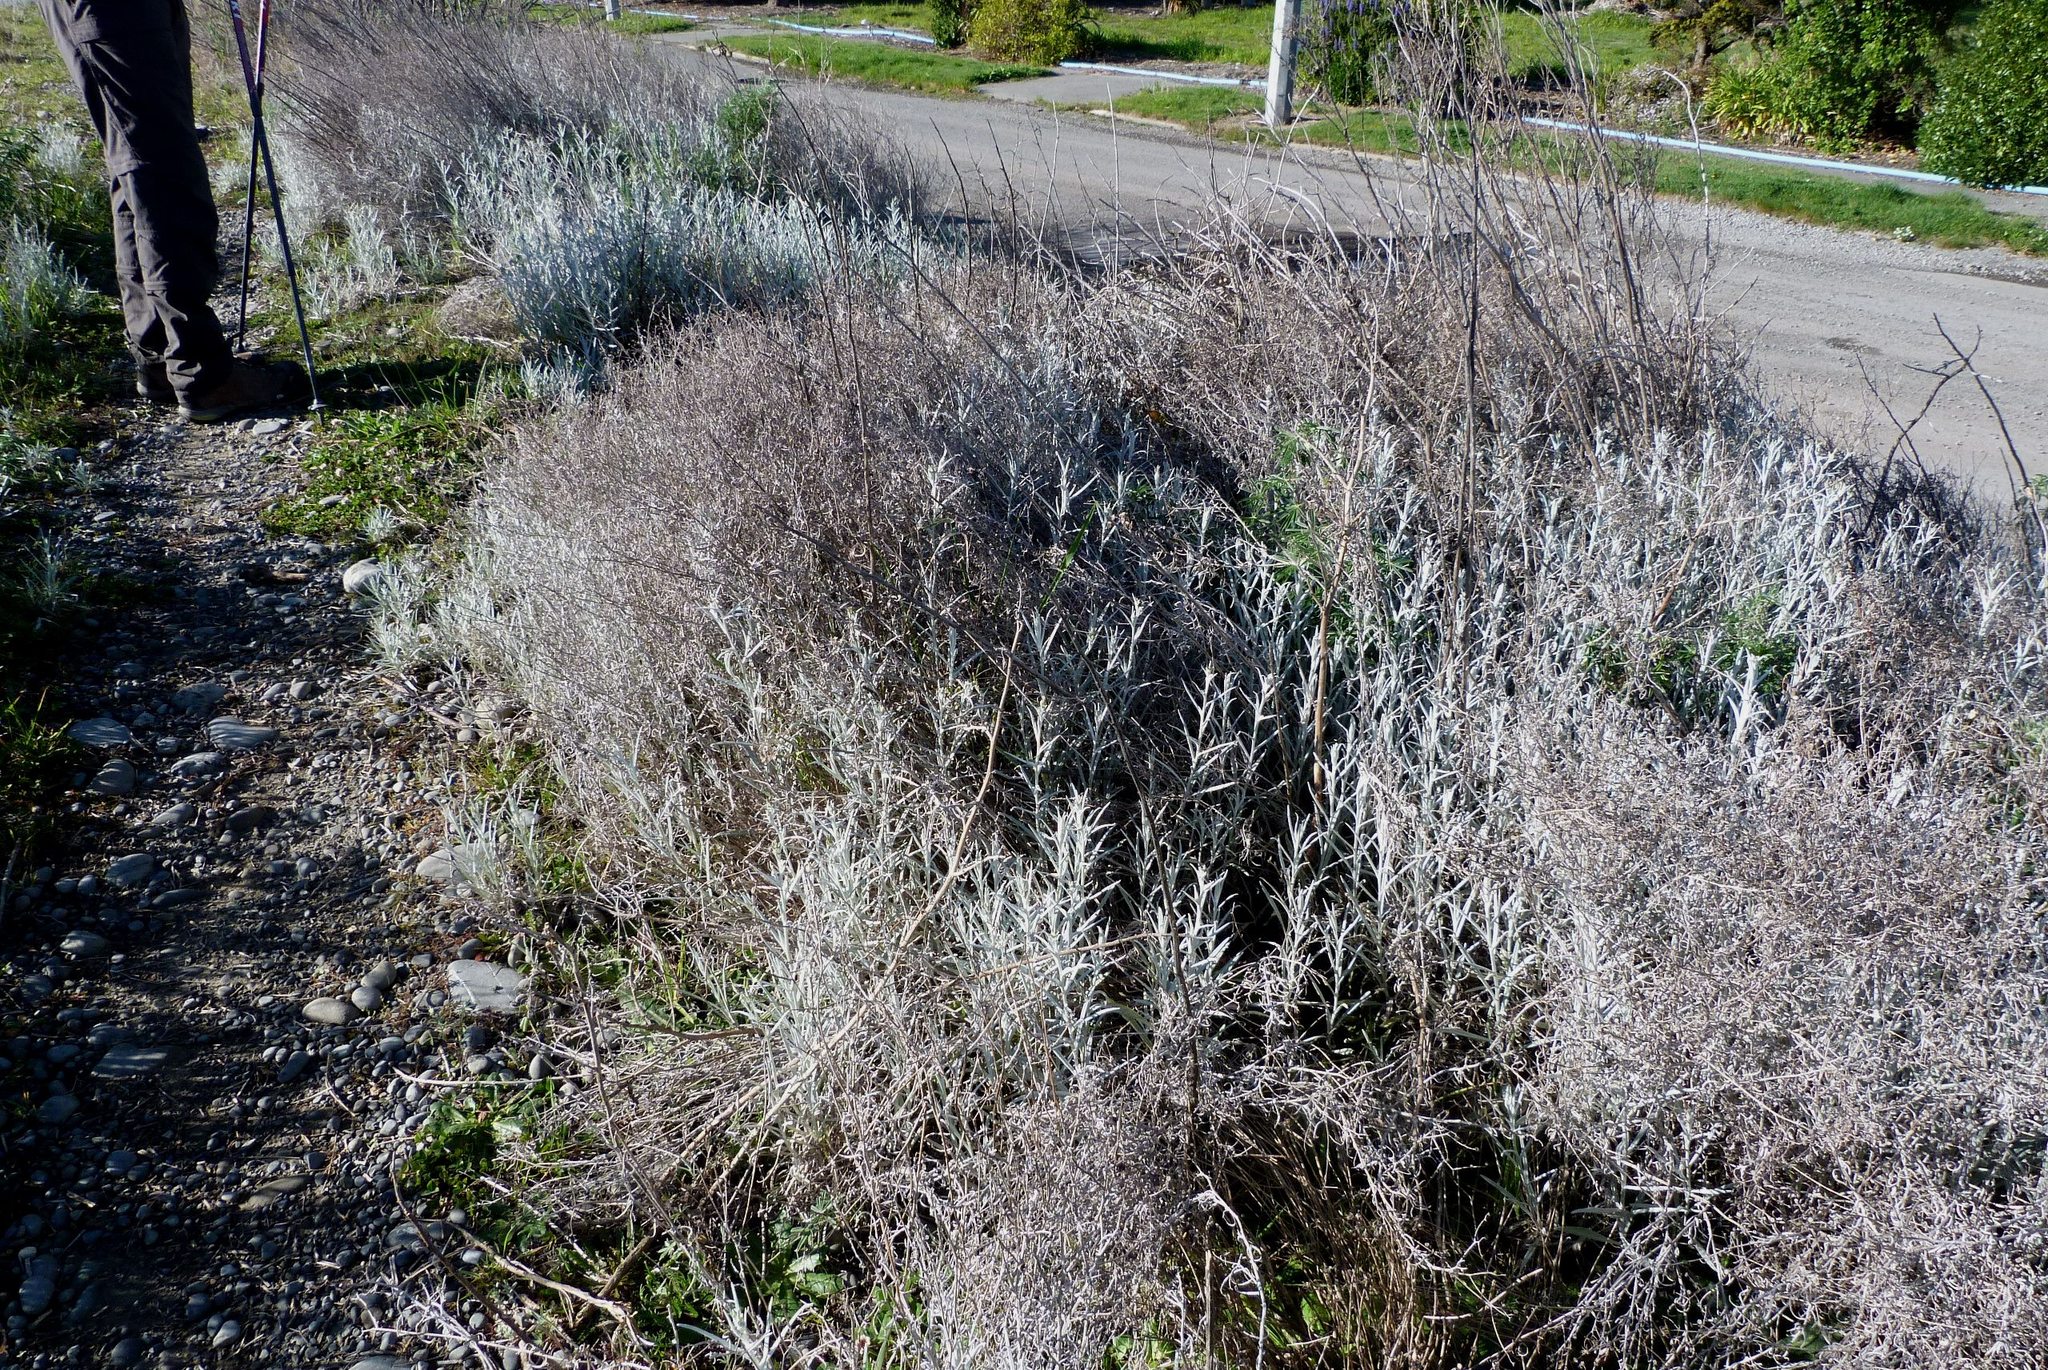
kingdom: Plantae
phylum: Tracheophyta
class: Magnoliopsida
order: Asterales
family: Asteraceae
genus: Senecio
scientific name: Senecio quadridentatus
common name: Cotton fireweed
